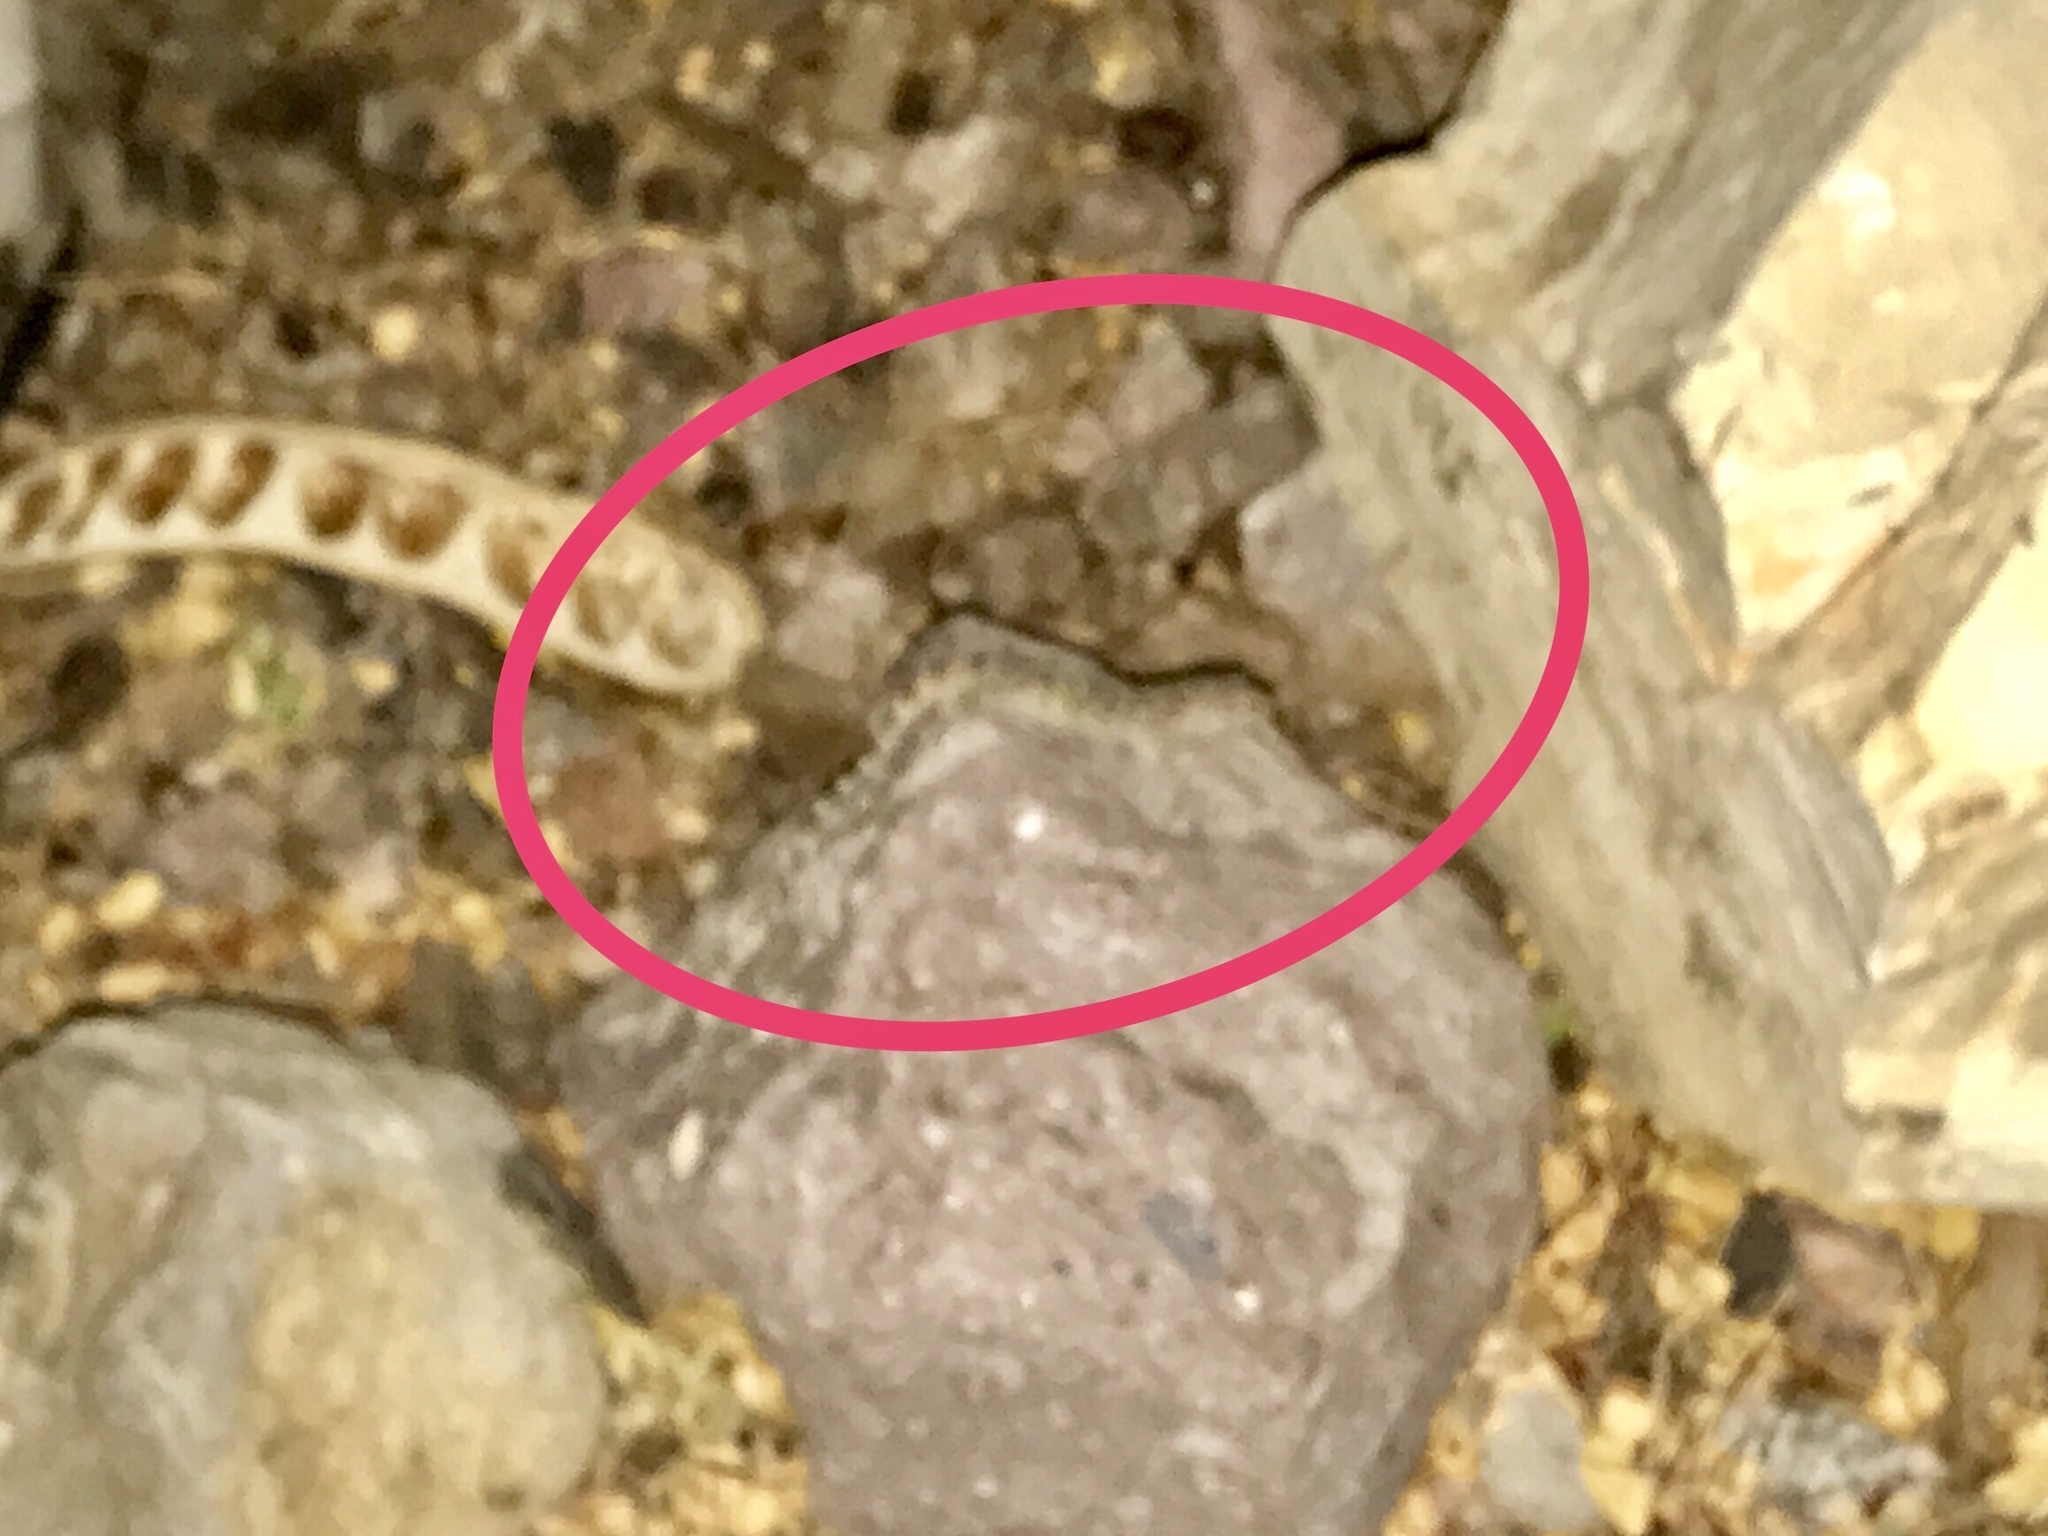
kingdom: Animalia
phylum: Chordata
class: Squamata
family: Gekkonidae
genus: Hemidactylus
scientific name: Hemidactylus turcicus
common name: Turkish gecko
